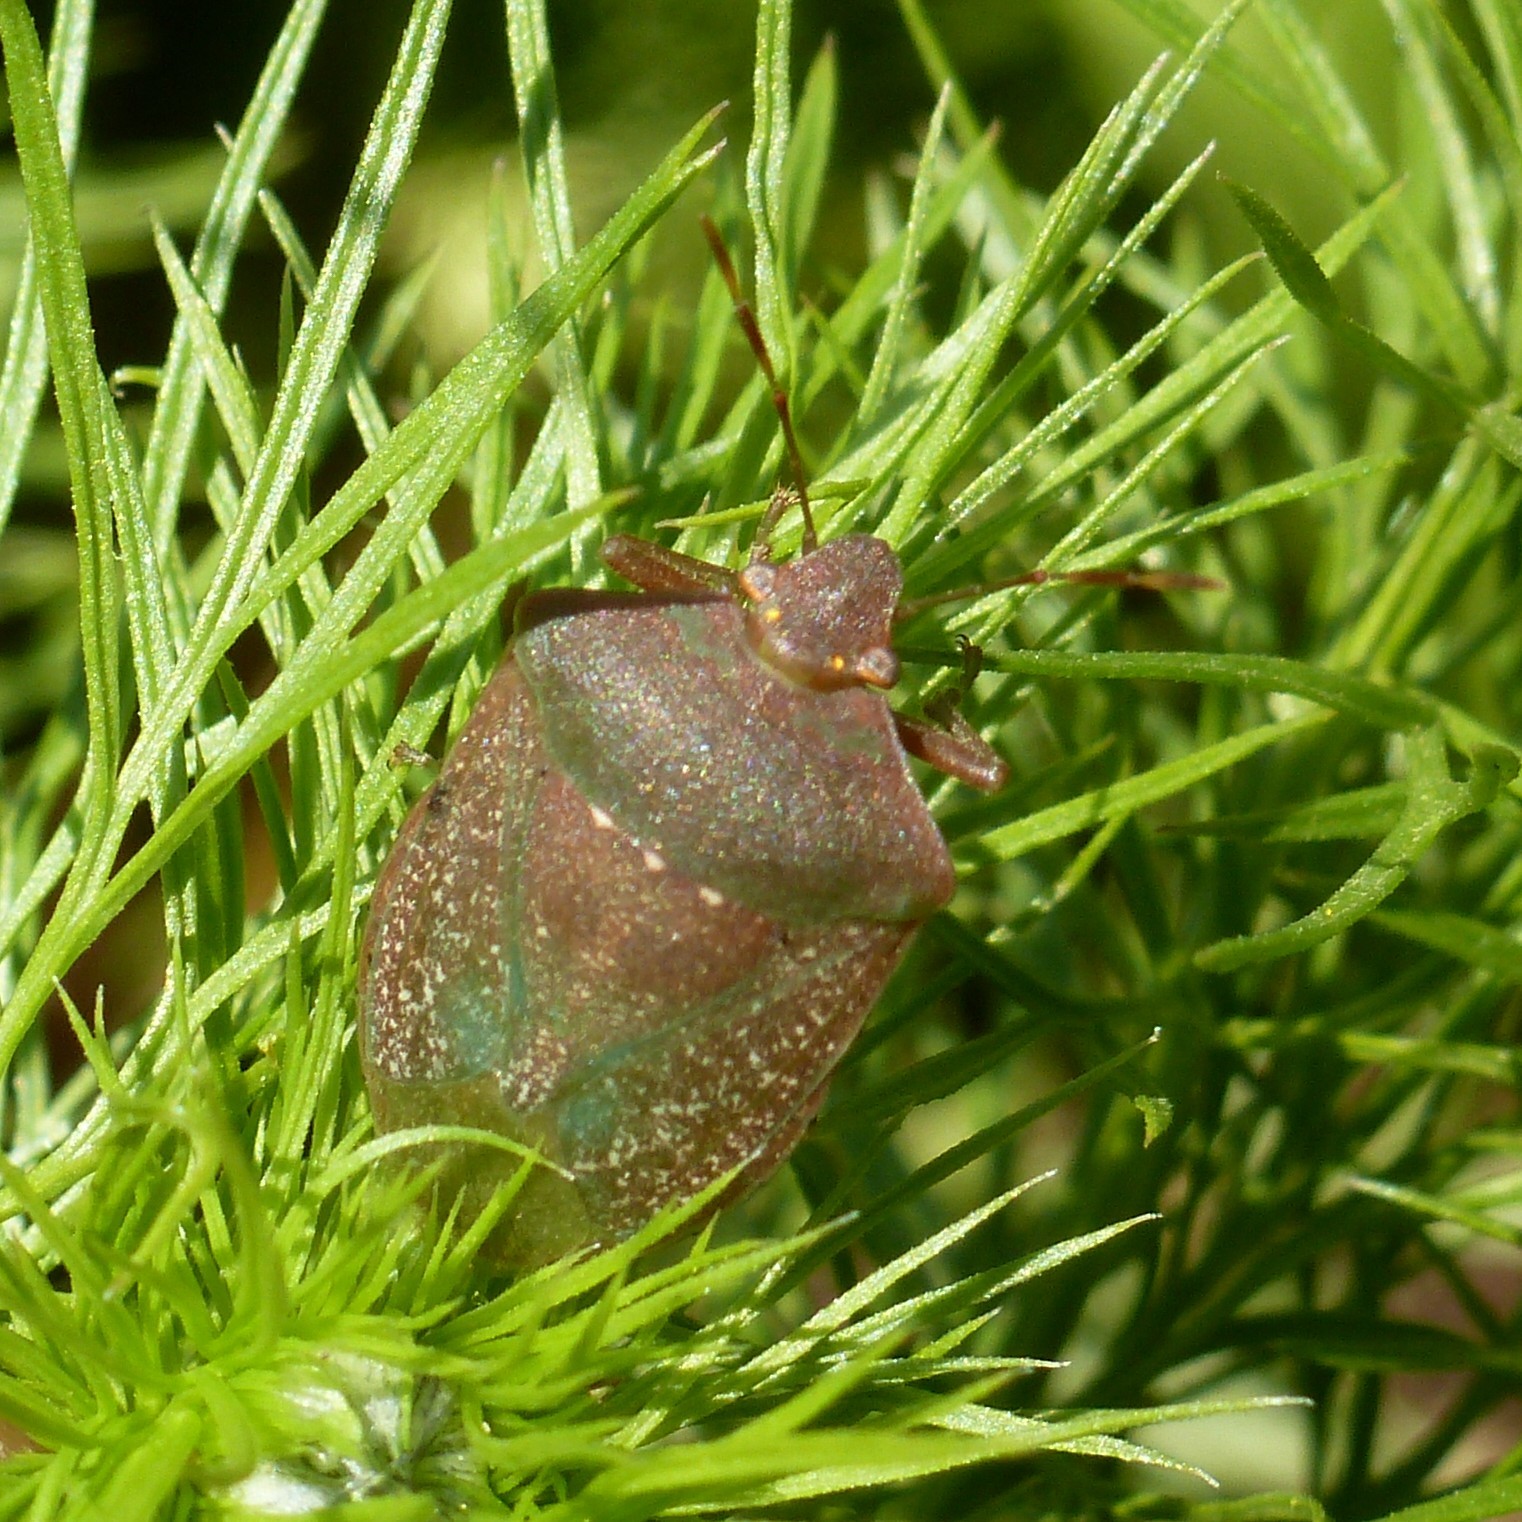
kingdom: Animalia
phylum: Arthropoda
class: Insecta
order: Hemiptera
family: Pentatomidae
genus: Nezara
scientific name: Nezara viridula
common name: Southern green stink bug
